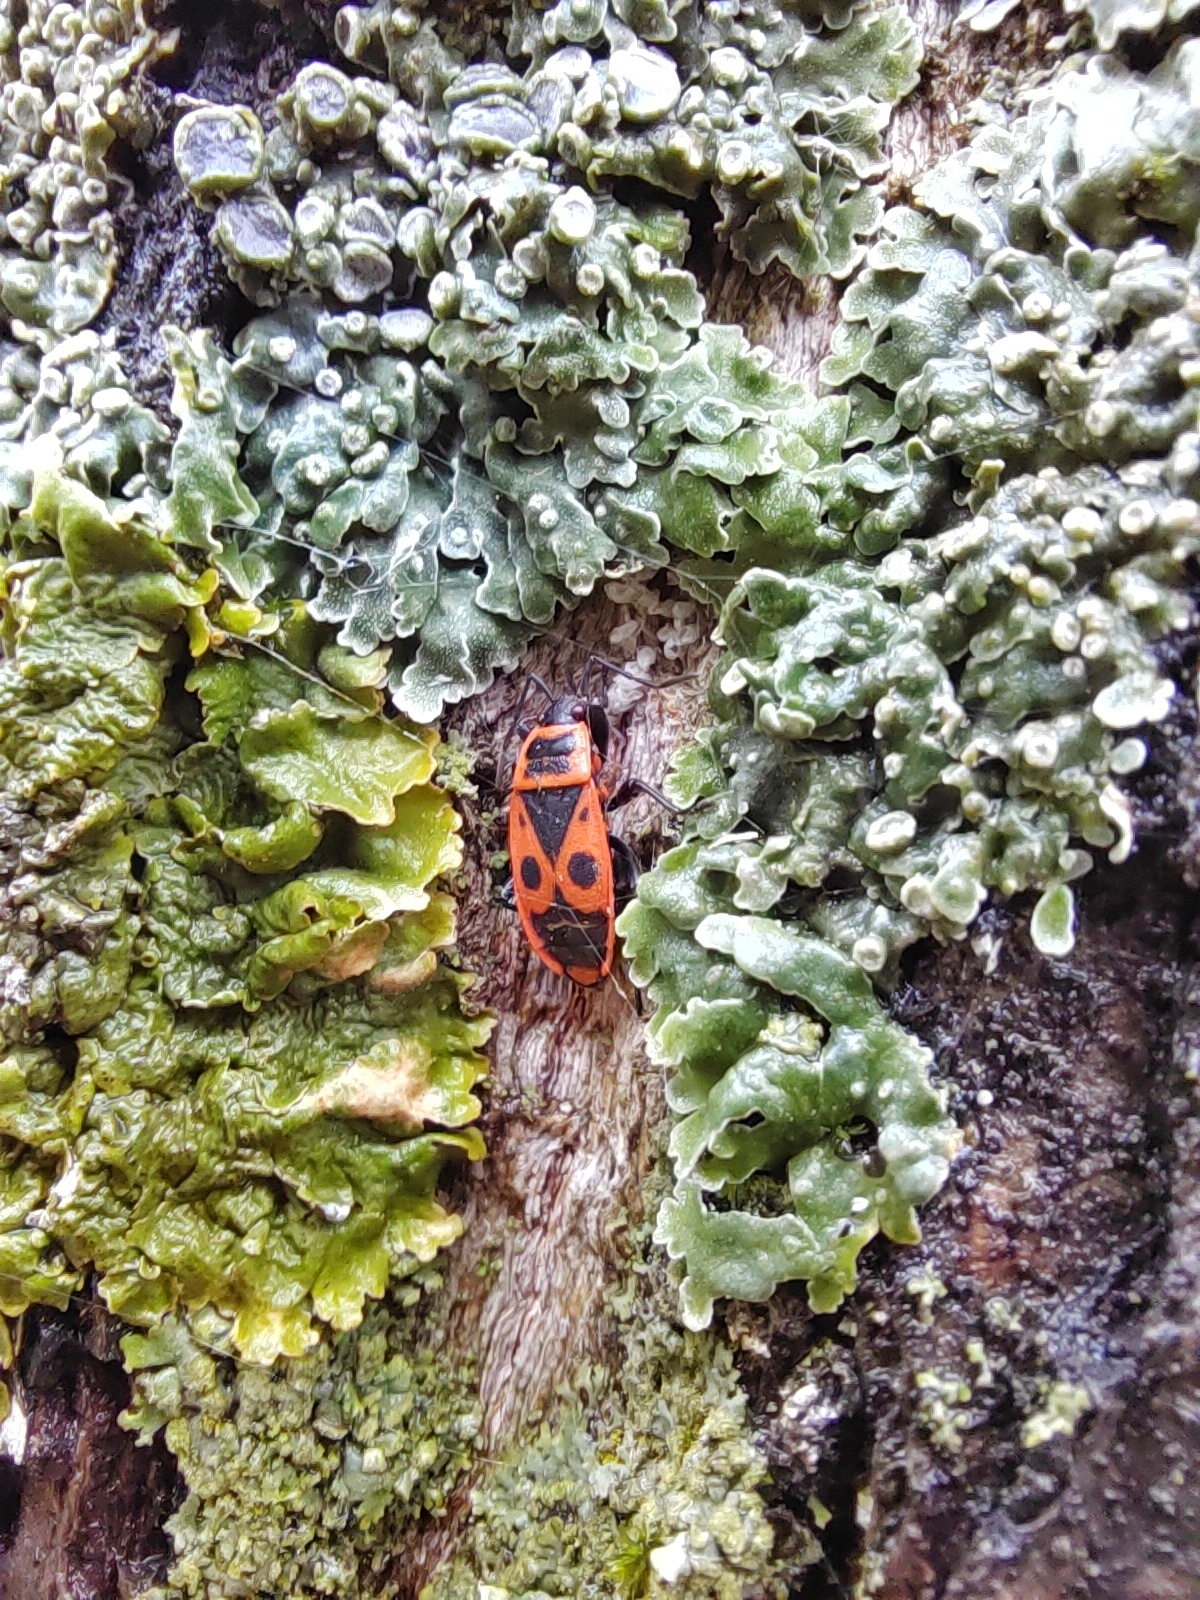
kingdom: Animalia
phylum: Arthropoda
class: Insecta
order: Hemiptera
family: Pyrrhocoridae
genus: Pyrrhocoris
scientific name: Pyrrhocoris apterus
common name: Firebug
